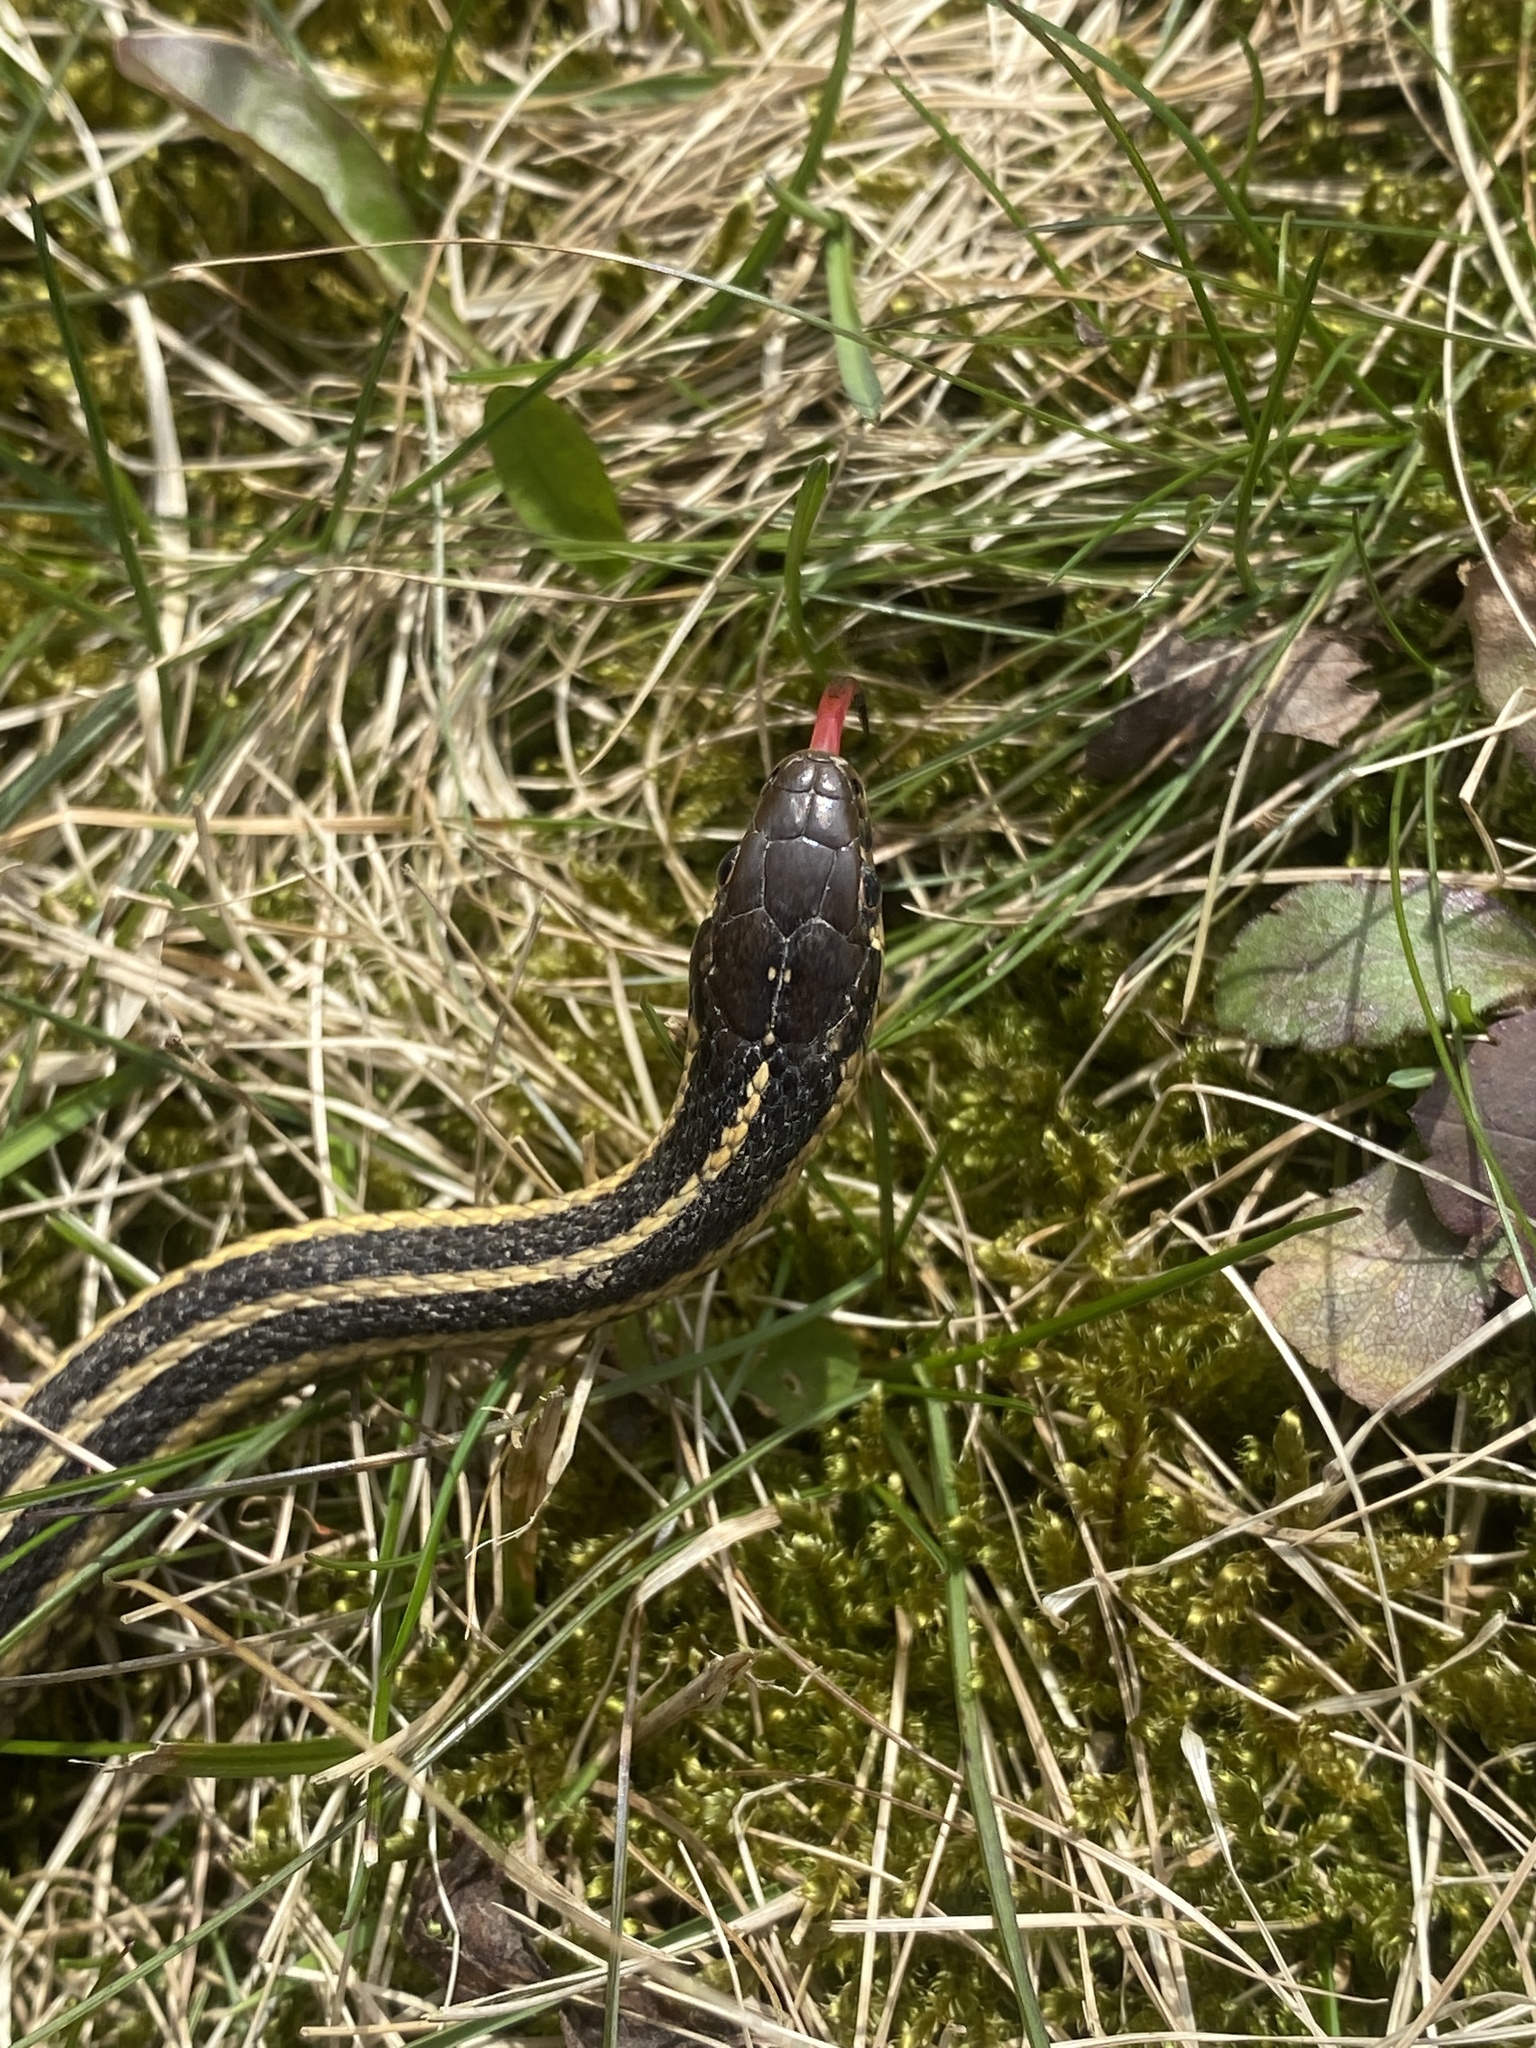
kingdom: Animalia
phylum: Chordata
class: Squamata
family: Colubridae
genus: Thamnophis
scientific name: Thamnophis butleri
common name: Butler's garter snake
